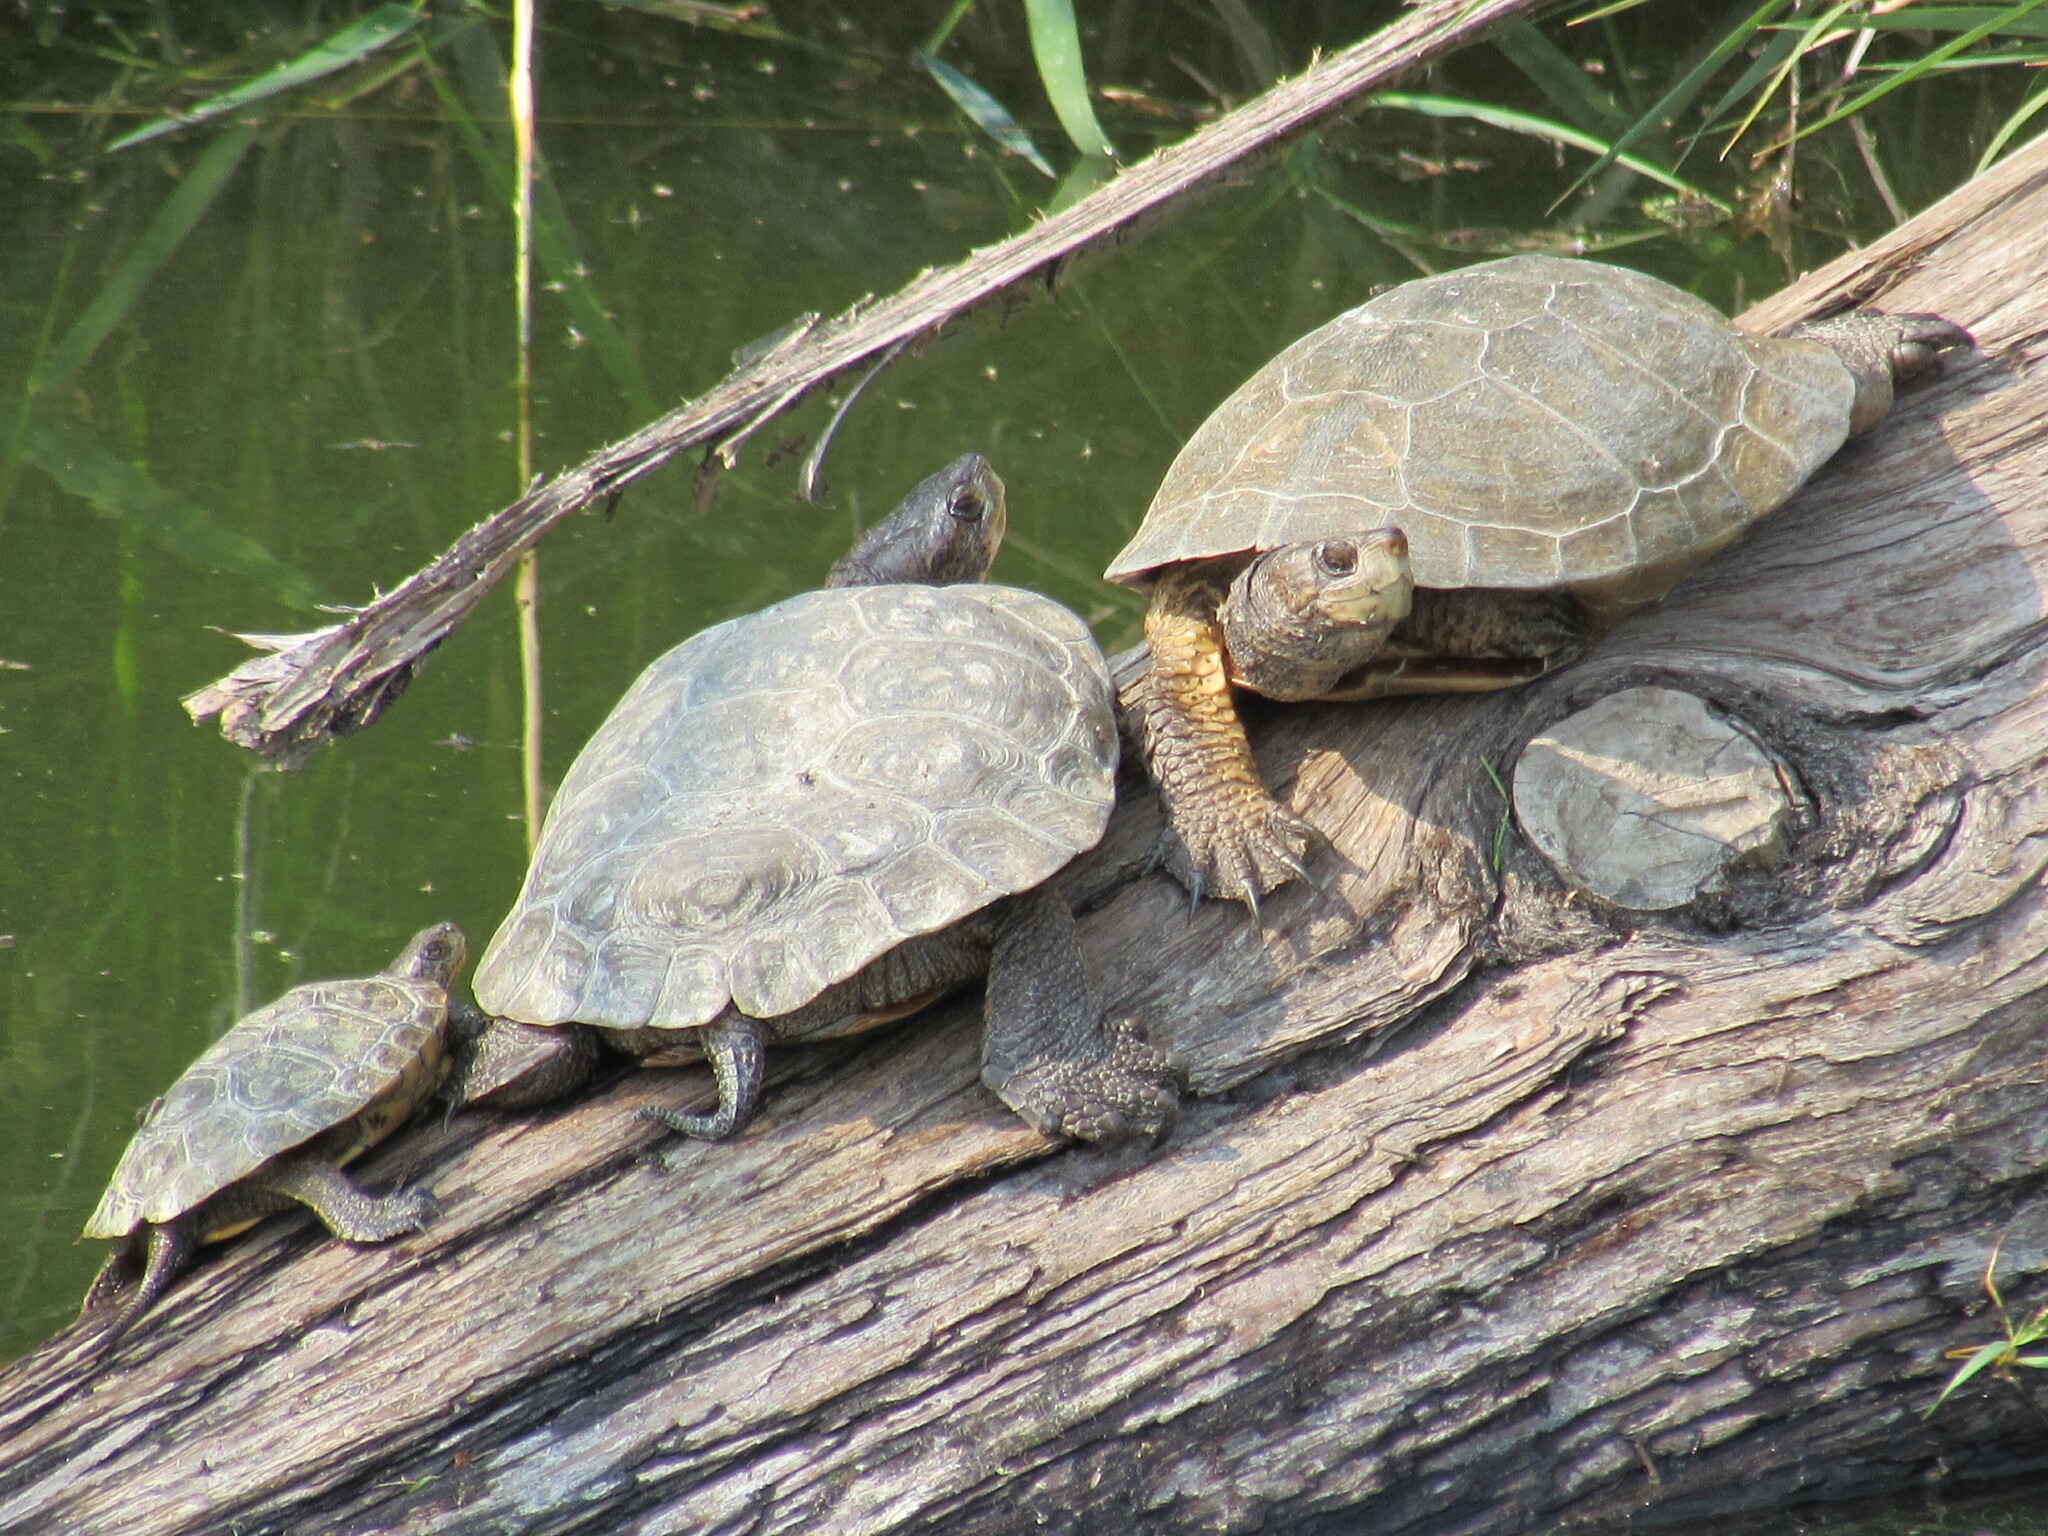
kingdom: Animalia
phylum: Chordata
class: Testudines
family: Emydidae
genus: Actinemys
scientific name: Actinemys marmorata
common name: Western pond turtle
